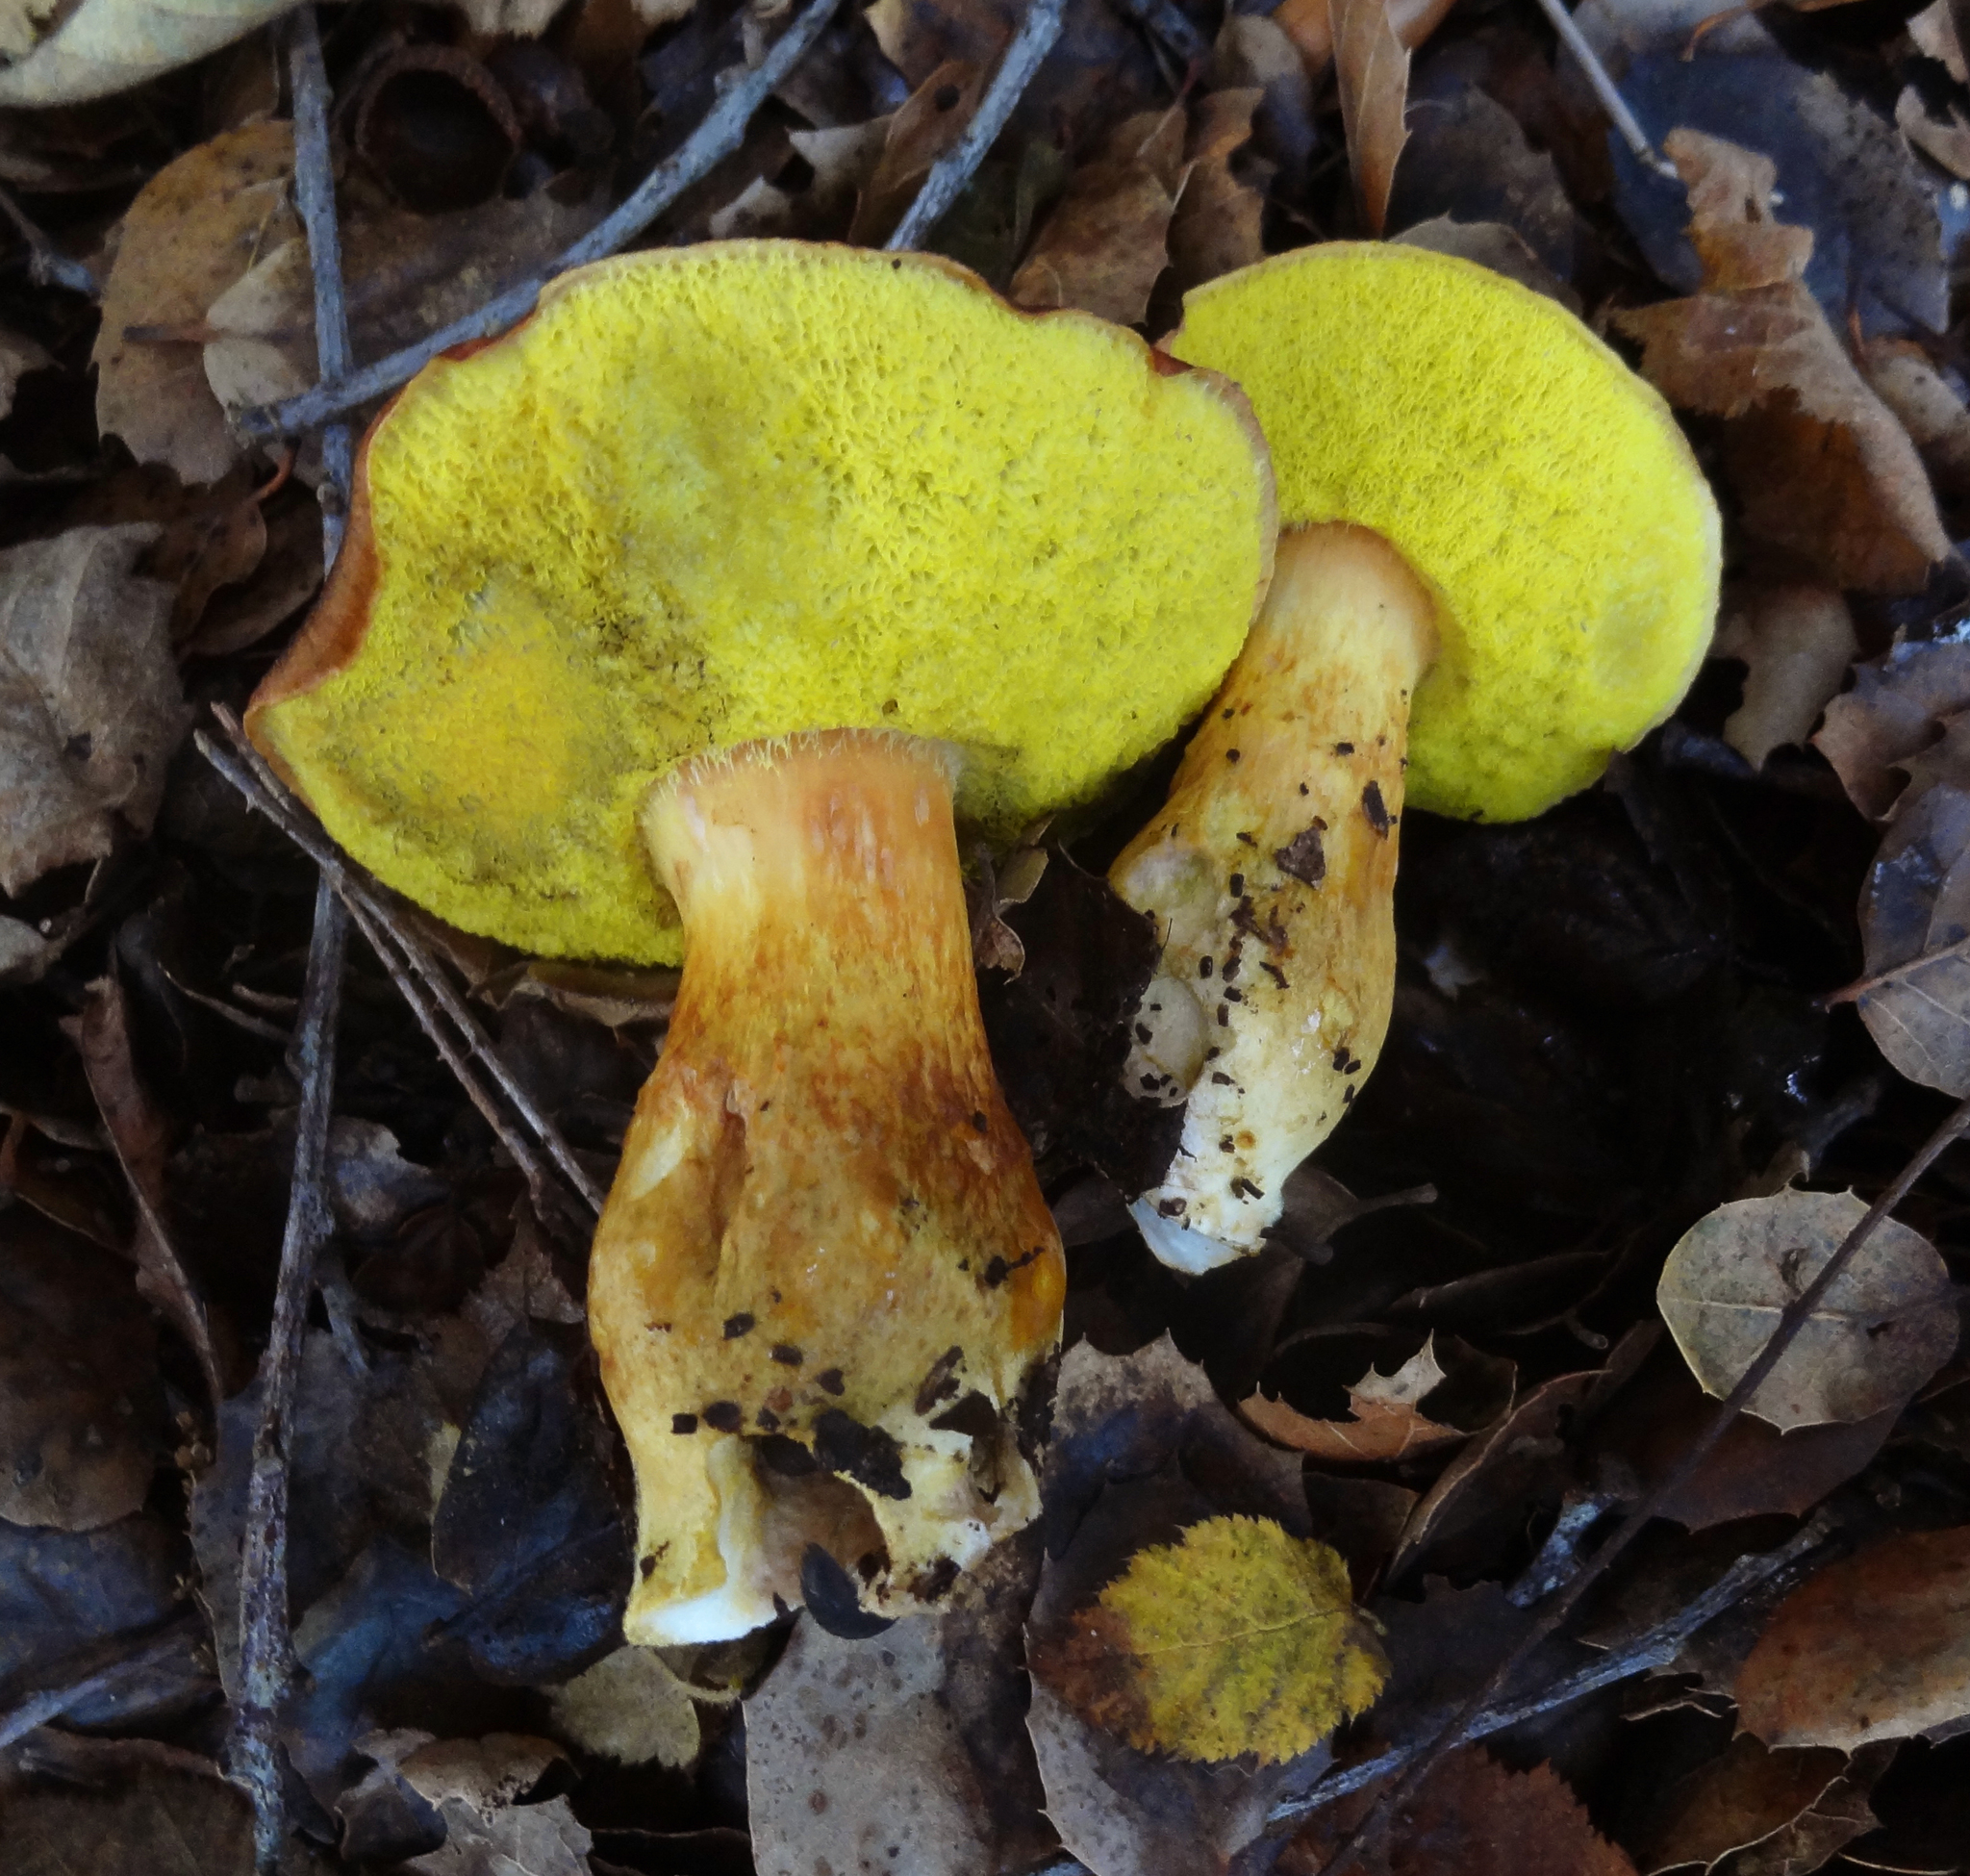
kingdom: Fungi
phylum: Basidiomycota
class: Agaricomycetes
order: Boletales
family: Boletaceae
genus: Aureoboletus
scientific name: Aureoboletus citriniporus
